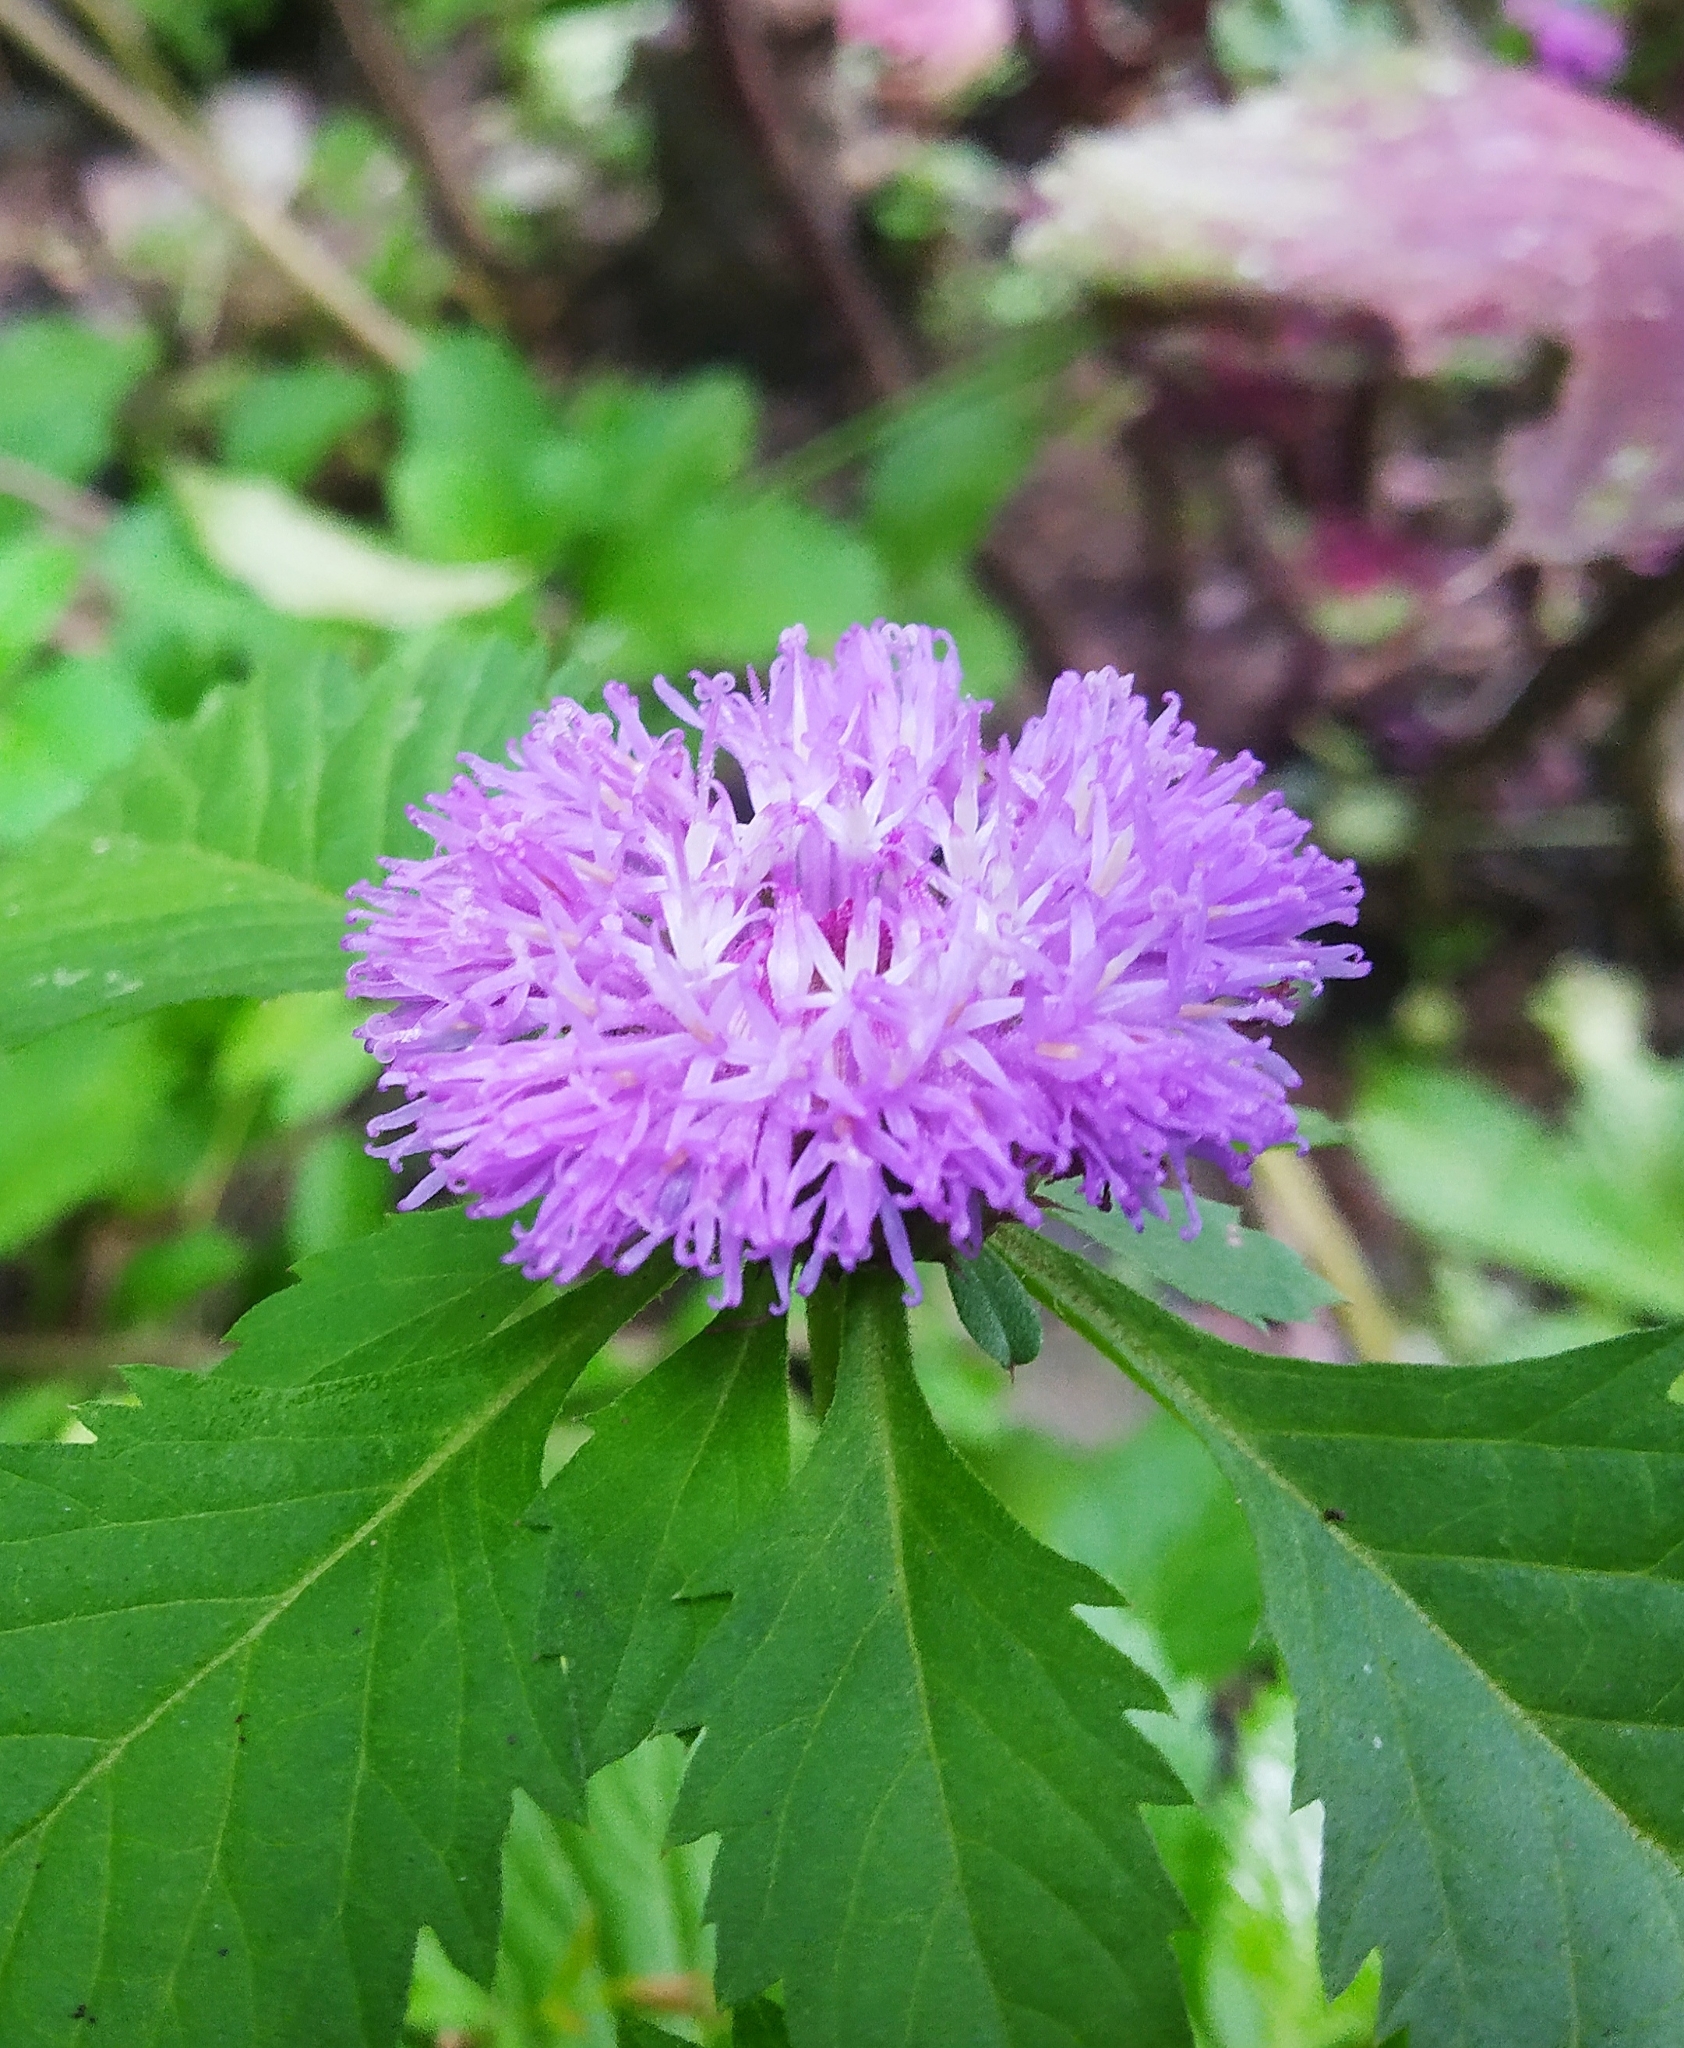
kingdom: Plantae
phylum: Tracheophyta
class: Magnoliopsida
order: Asterales
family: Asteraceae
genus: Centratherum
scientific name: Centratherum punctatum
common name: Larkdaisy
